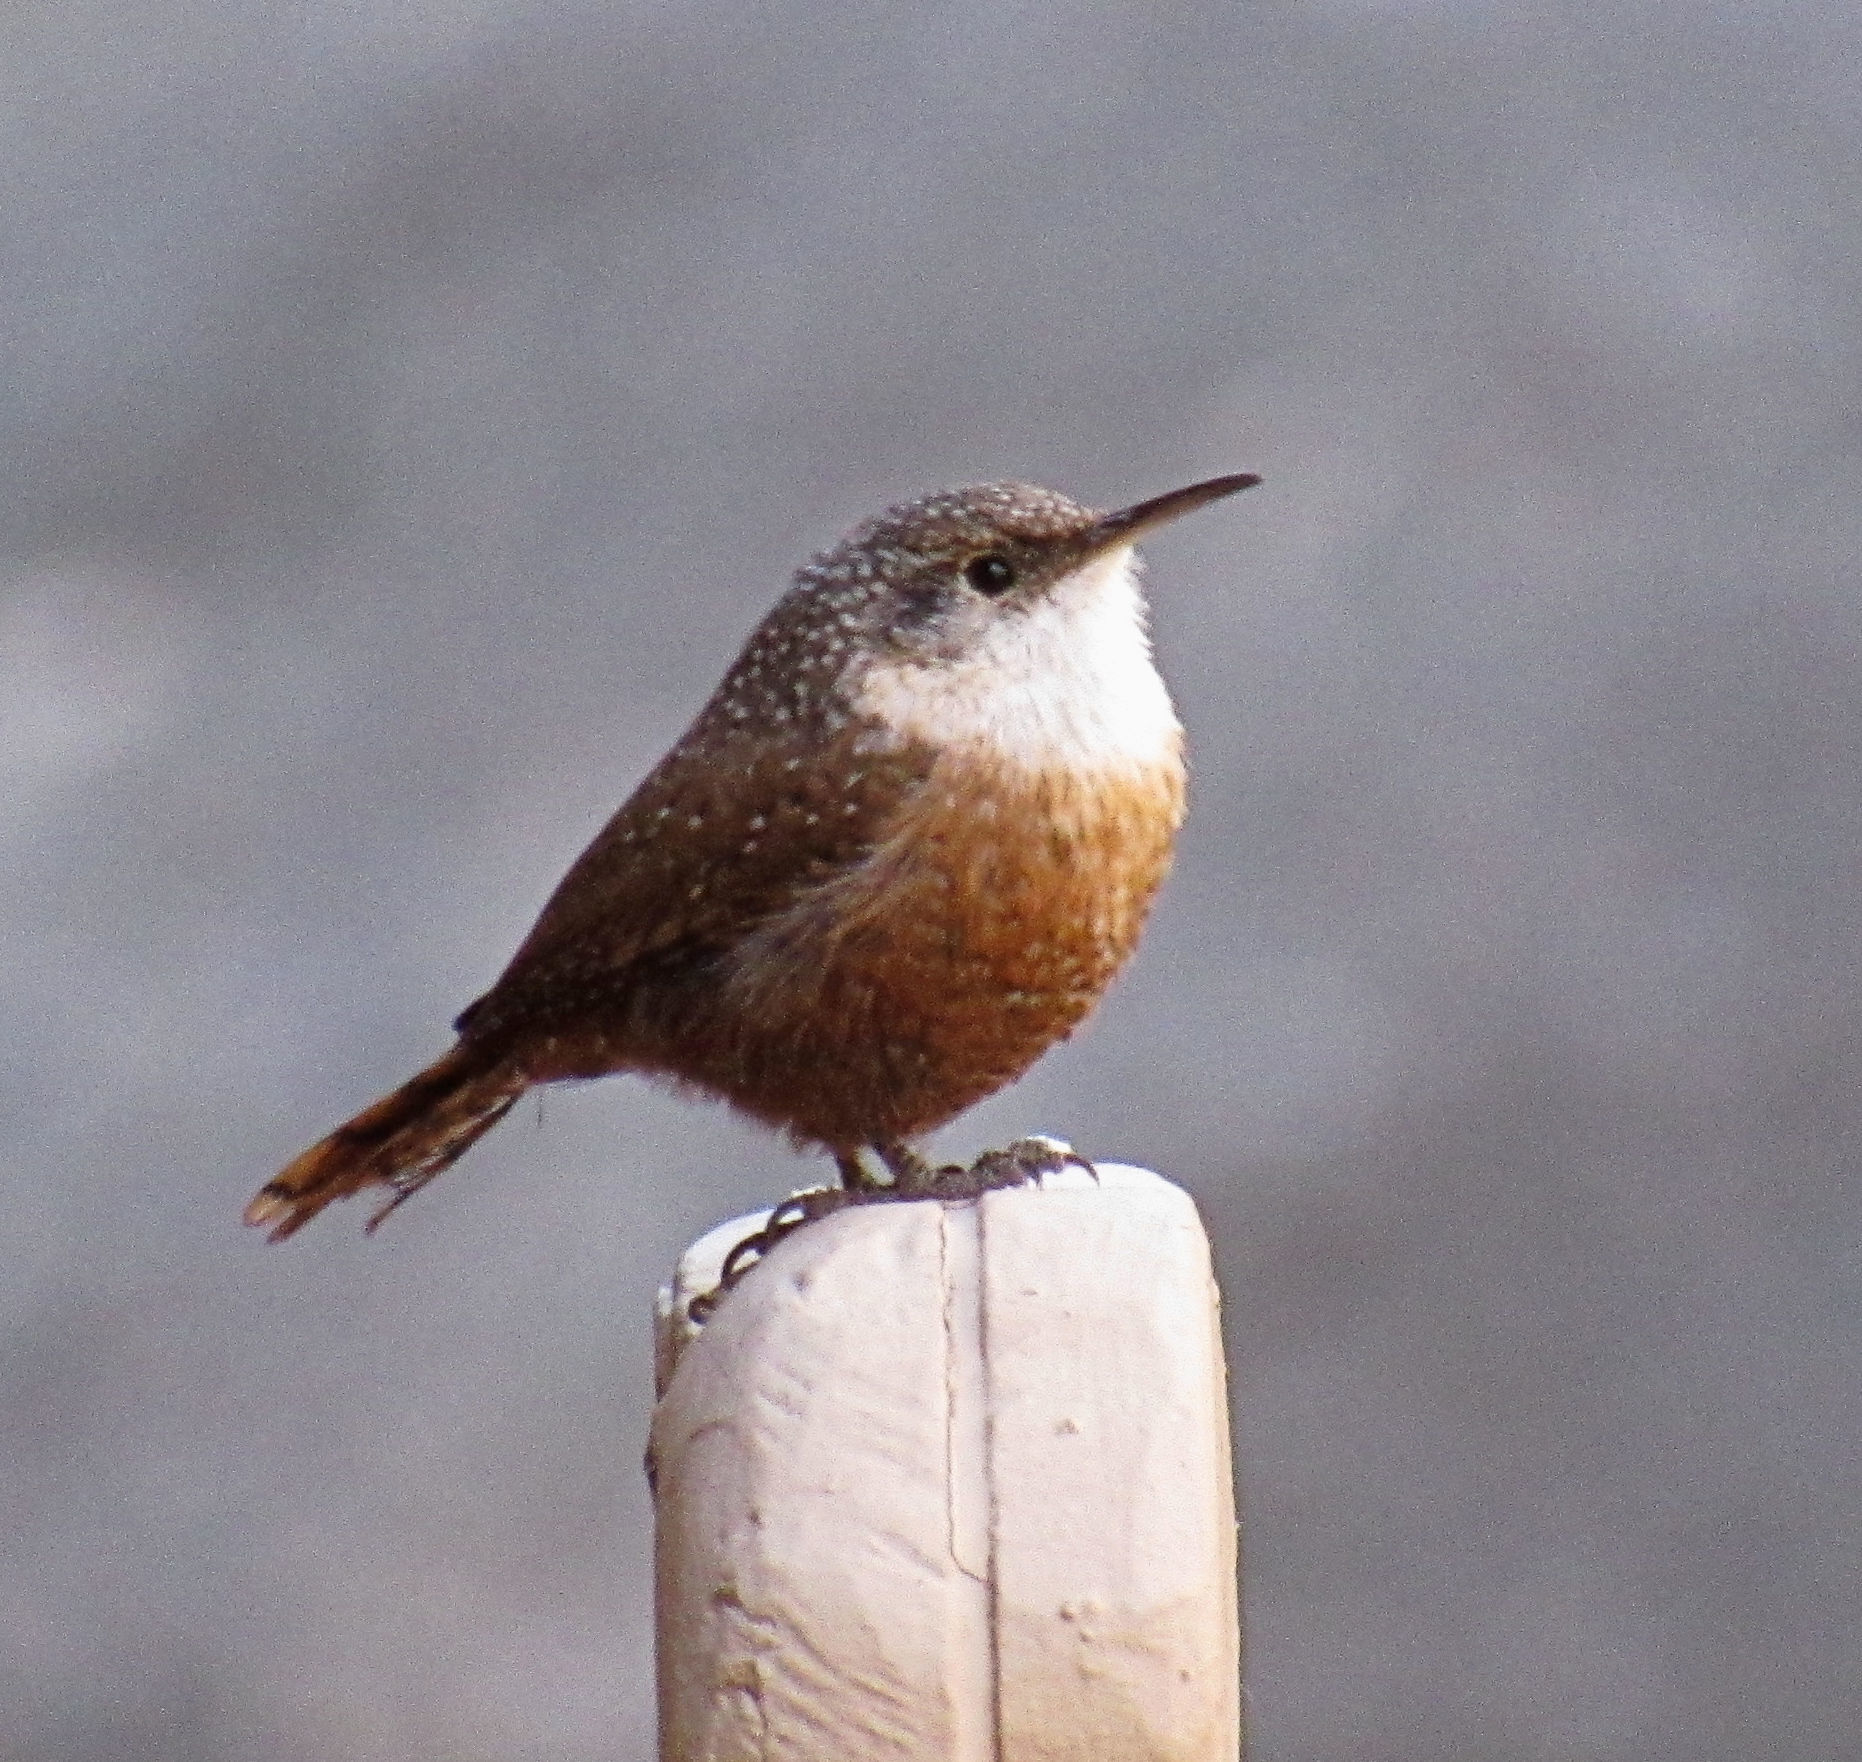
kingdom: Animalia
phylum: Chordata
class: Aves
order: Passeriformes
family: Troglodytidae
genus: Catherpes
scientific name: Catherpes mexicanus
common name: Canyon wren
